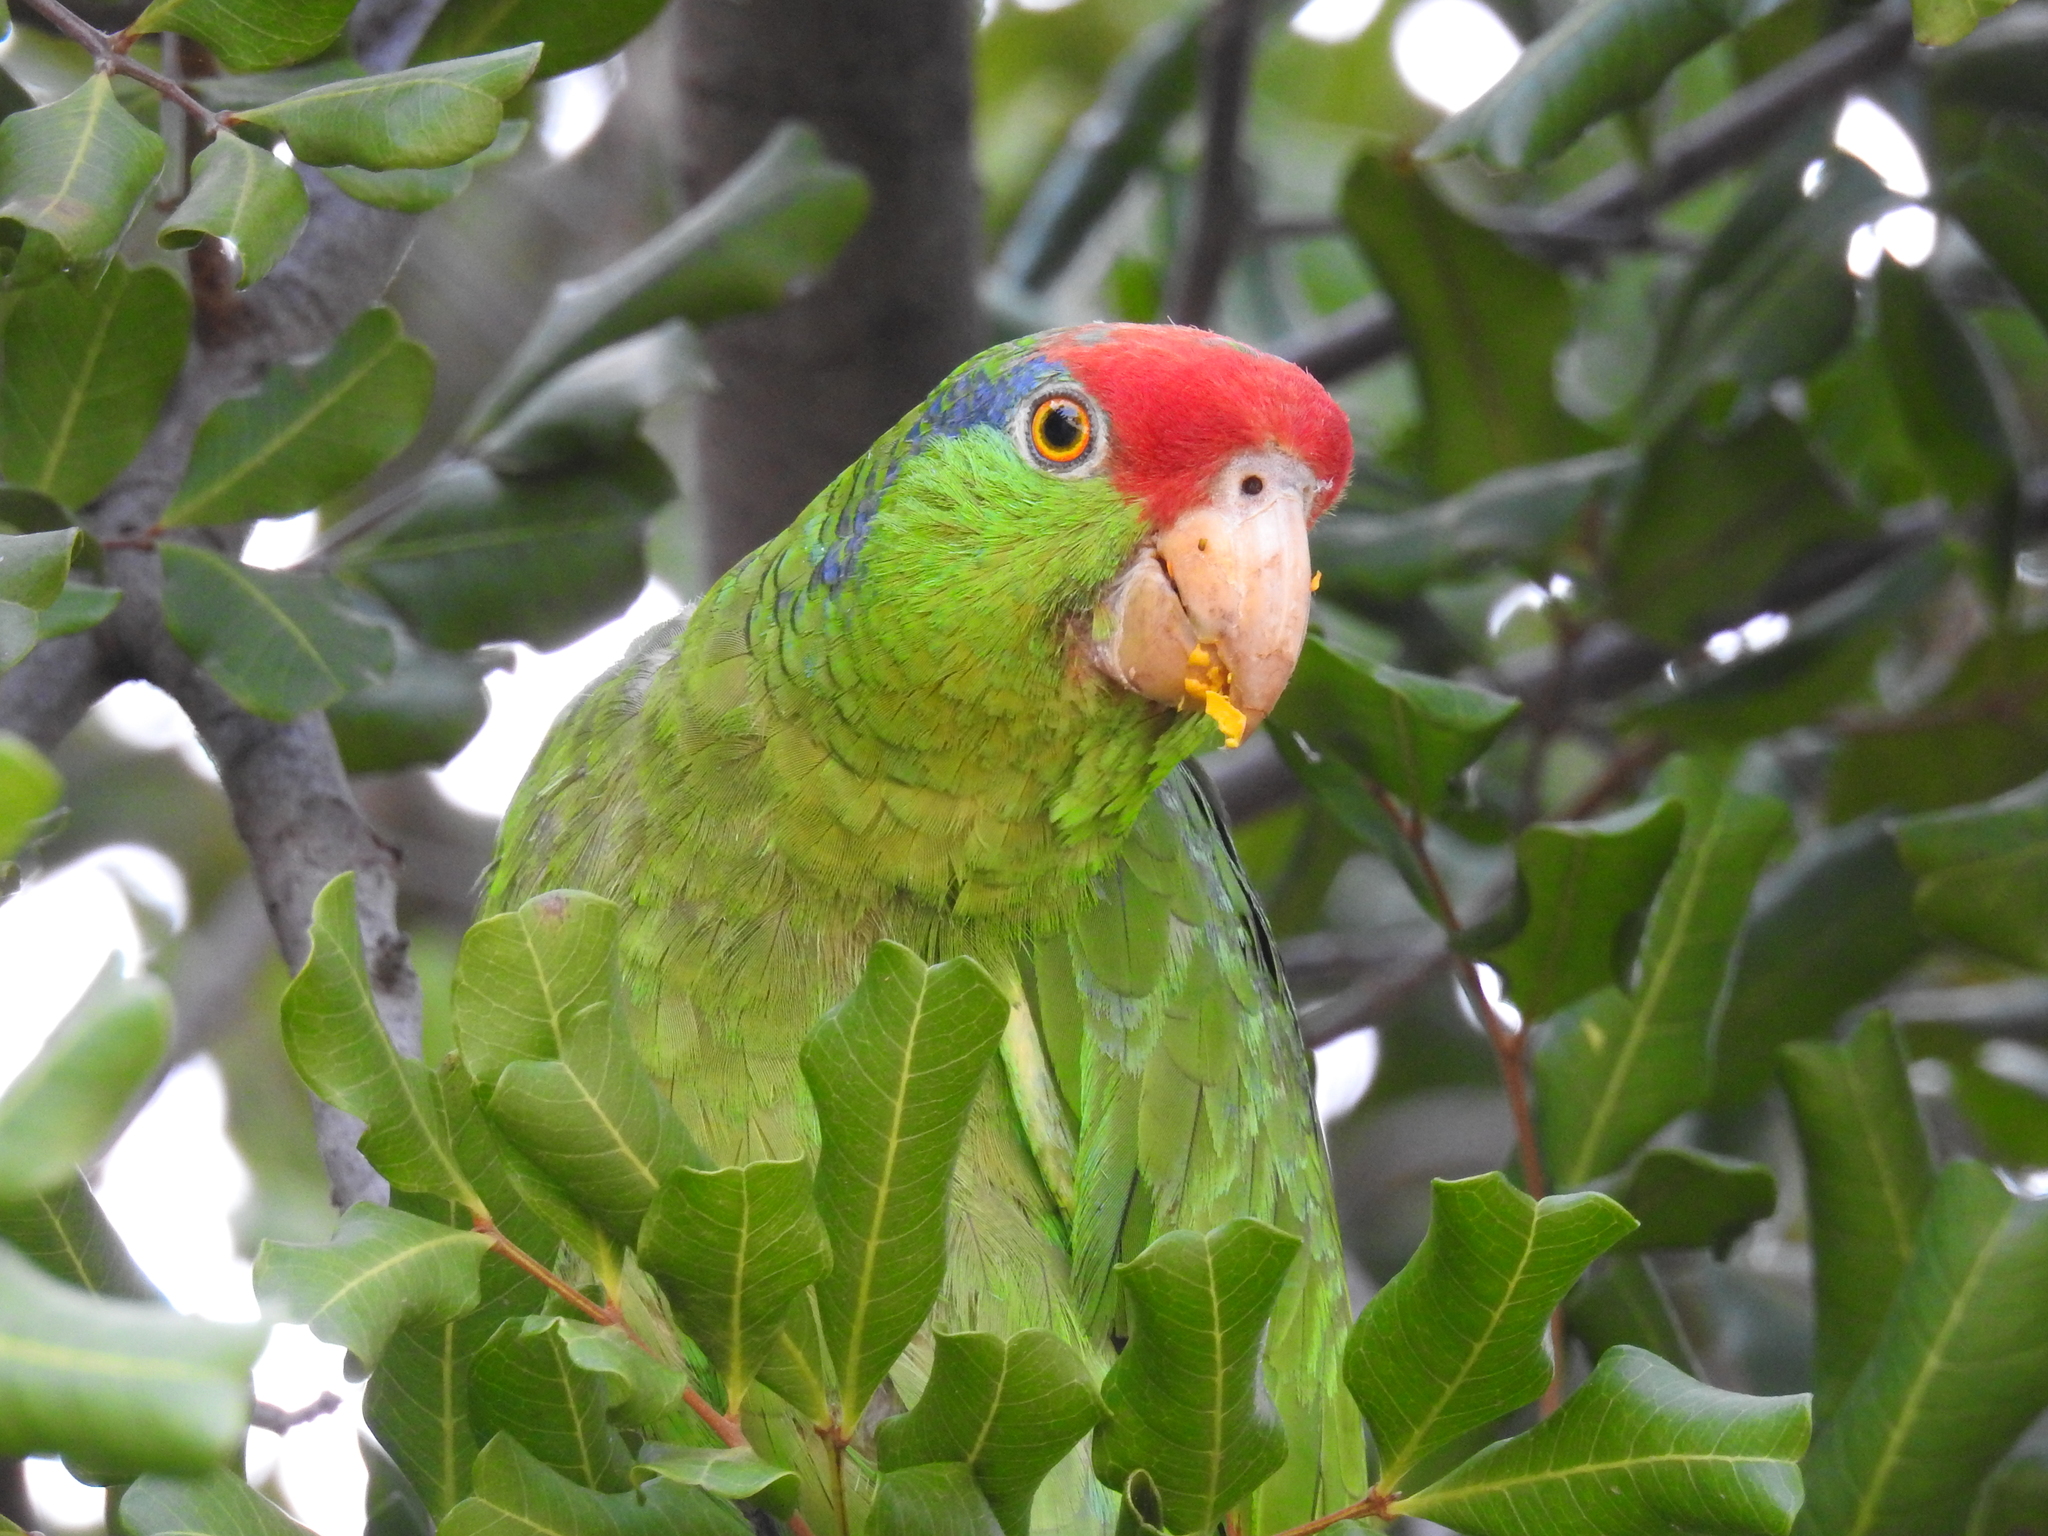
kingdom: Animalia
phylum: Chordata
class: Aves
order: Psittaciformes
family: Psittacidae
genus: Amazona
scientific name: Amazona viridigenalis
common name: Red-crowned amazon
